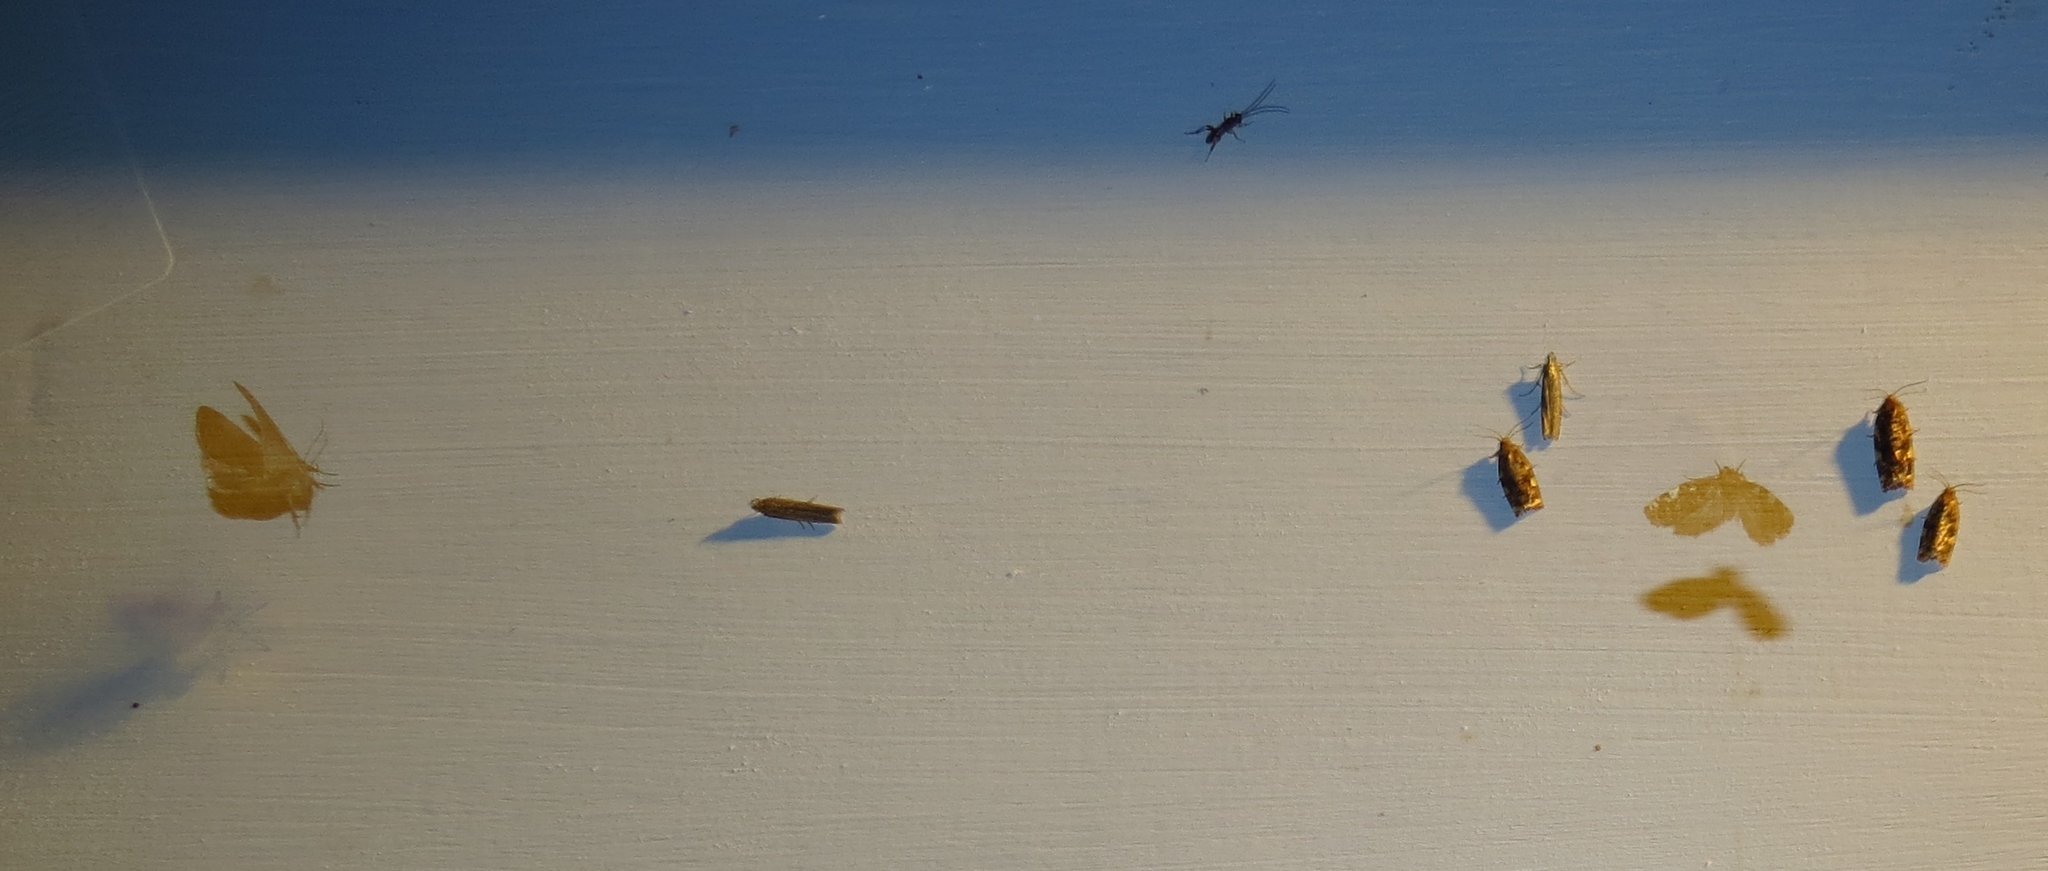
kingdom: Animalia
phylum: Arthropoda
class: Insecta
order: Lepidoptera
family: Tortricidae
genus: Archips
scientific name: Archips argyrospila
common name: Fruit-tree leafroller moth
